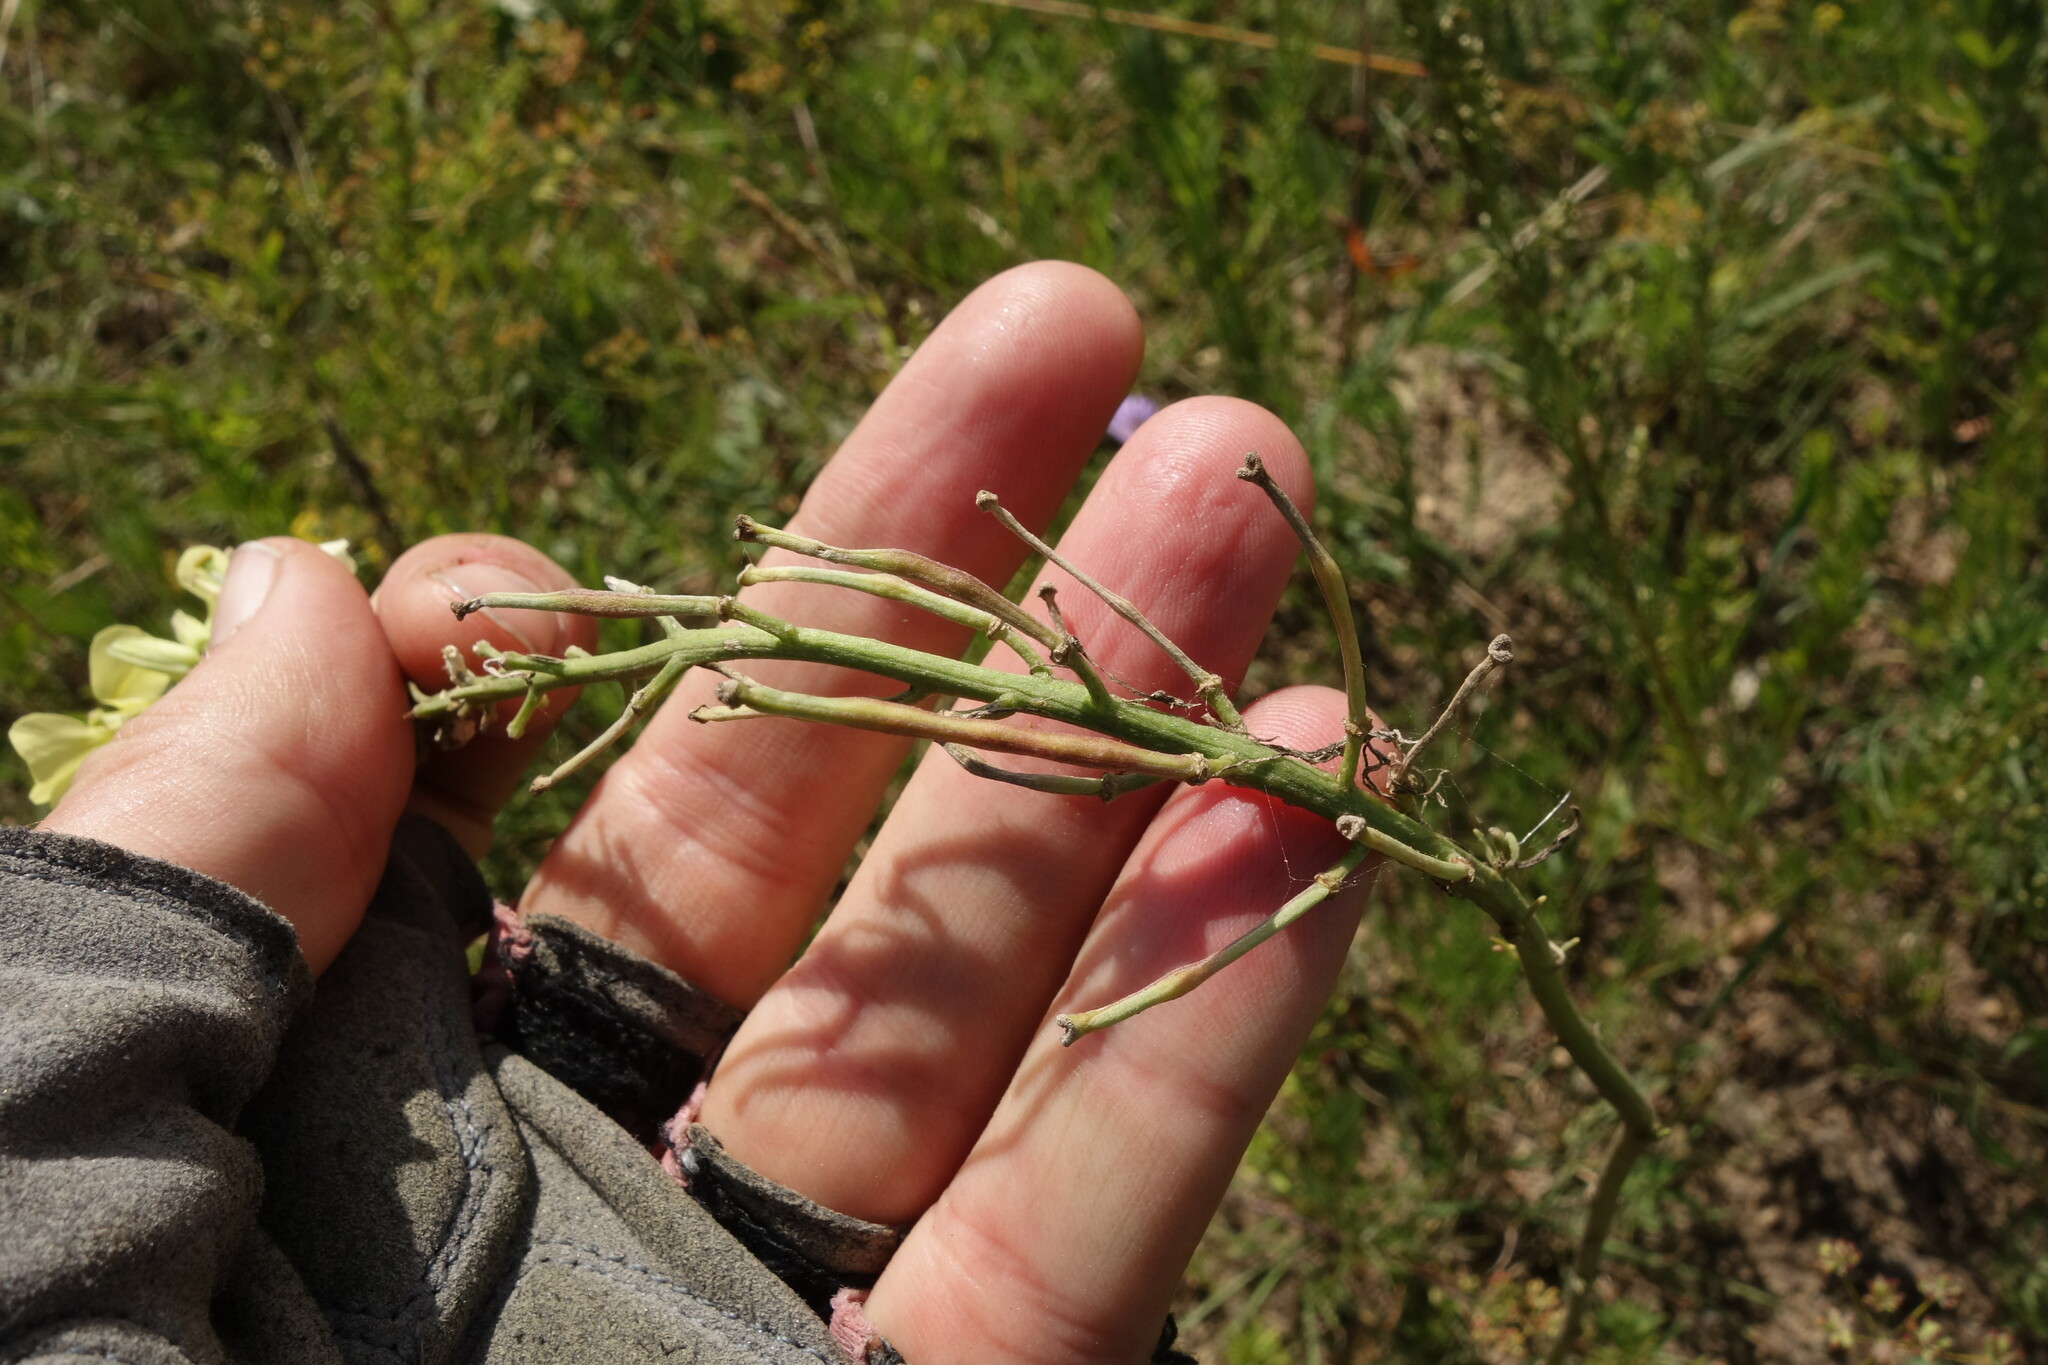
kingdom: Plantae
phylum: Tracheophyta
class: Magnoliopsida
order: Brassicales
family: Brassicaceae
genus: Erysimum
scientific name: Erysimum flavum
